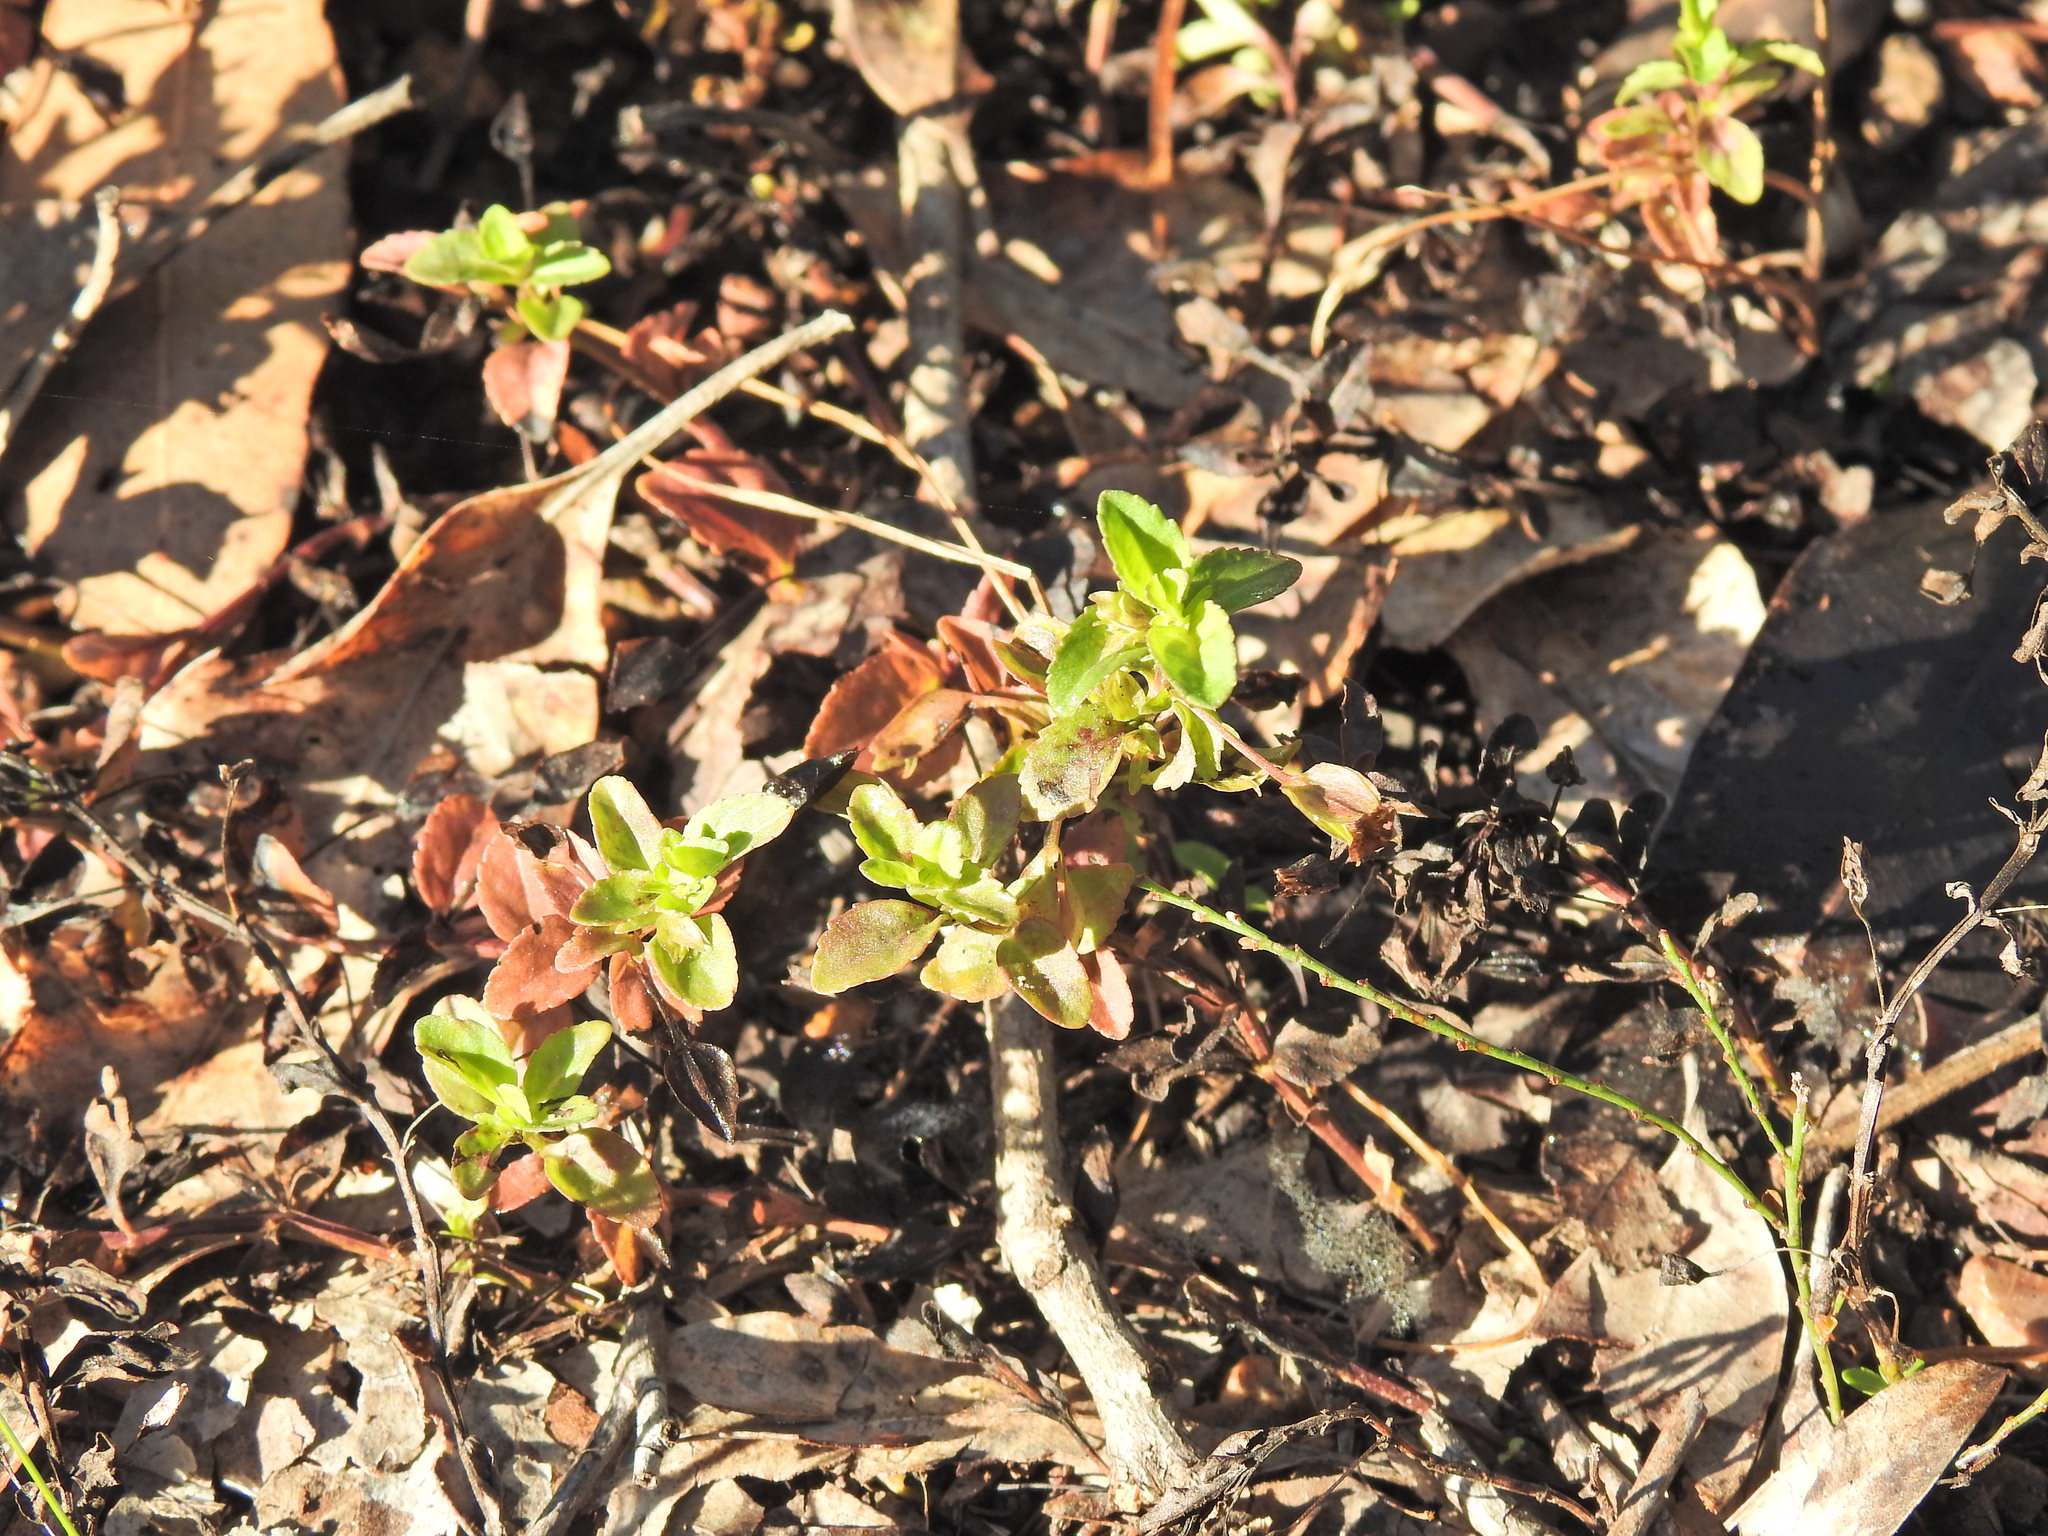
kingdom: Plantae
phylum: Tracheophyta
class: Magnoliopsida
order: Lamiales
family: Plantaginaceae
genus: Mecardonia
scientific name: Mecardonia procumbens
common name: Baby jump-up
